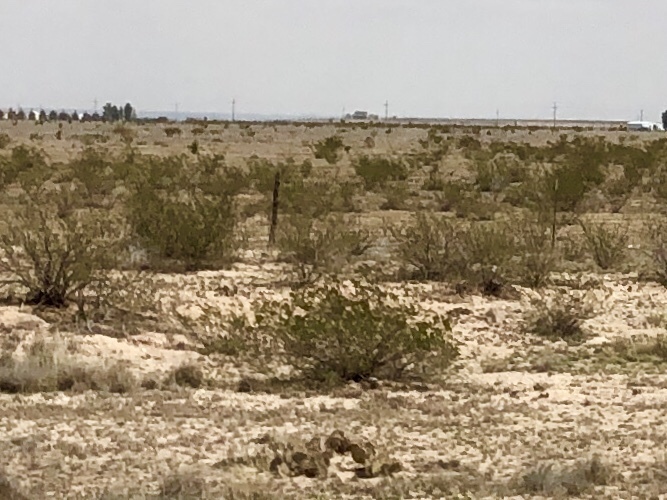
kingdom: Plantae
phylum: Tracheophyta
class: Magnoliopsida
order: Zygophyllales
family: Zygophyllaceae
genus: Larrea
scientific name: Larrea tridentata
